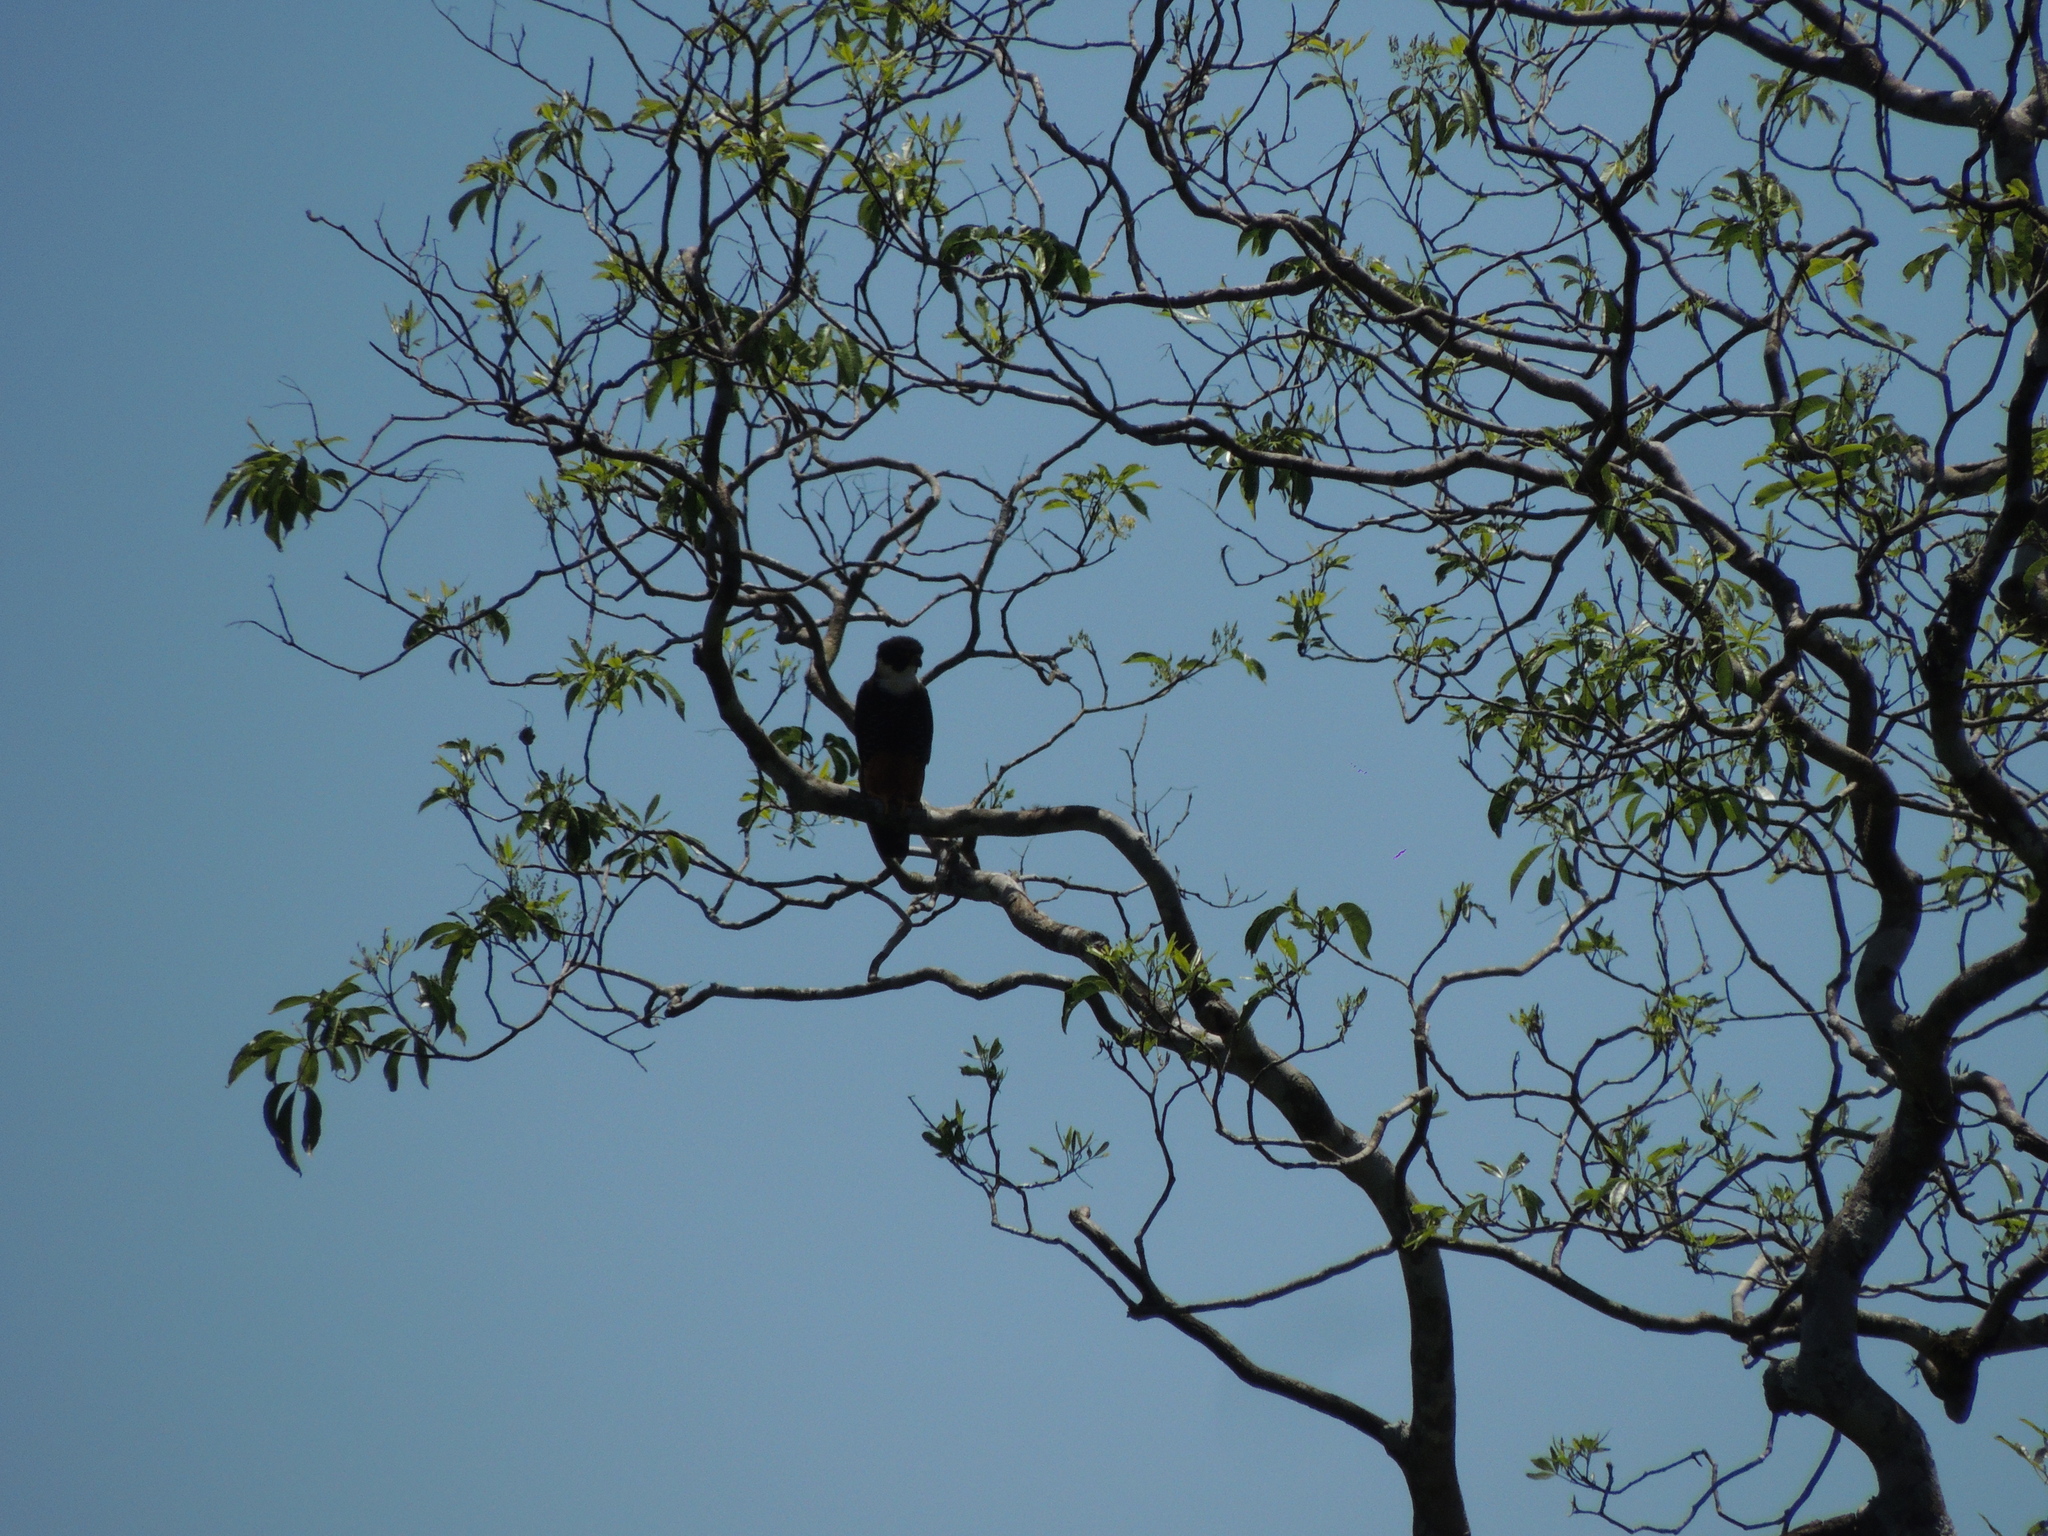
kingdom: Animalia
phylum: Chordata
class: Aves
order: Falconiformes
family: Falconidae
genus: Falco
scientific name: Falco rufigularis
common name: Bat falcon
